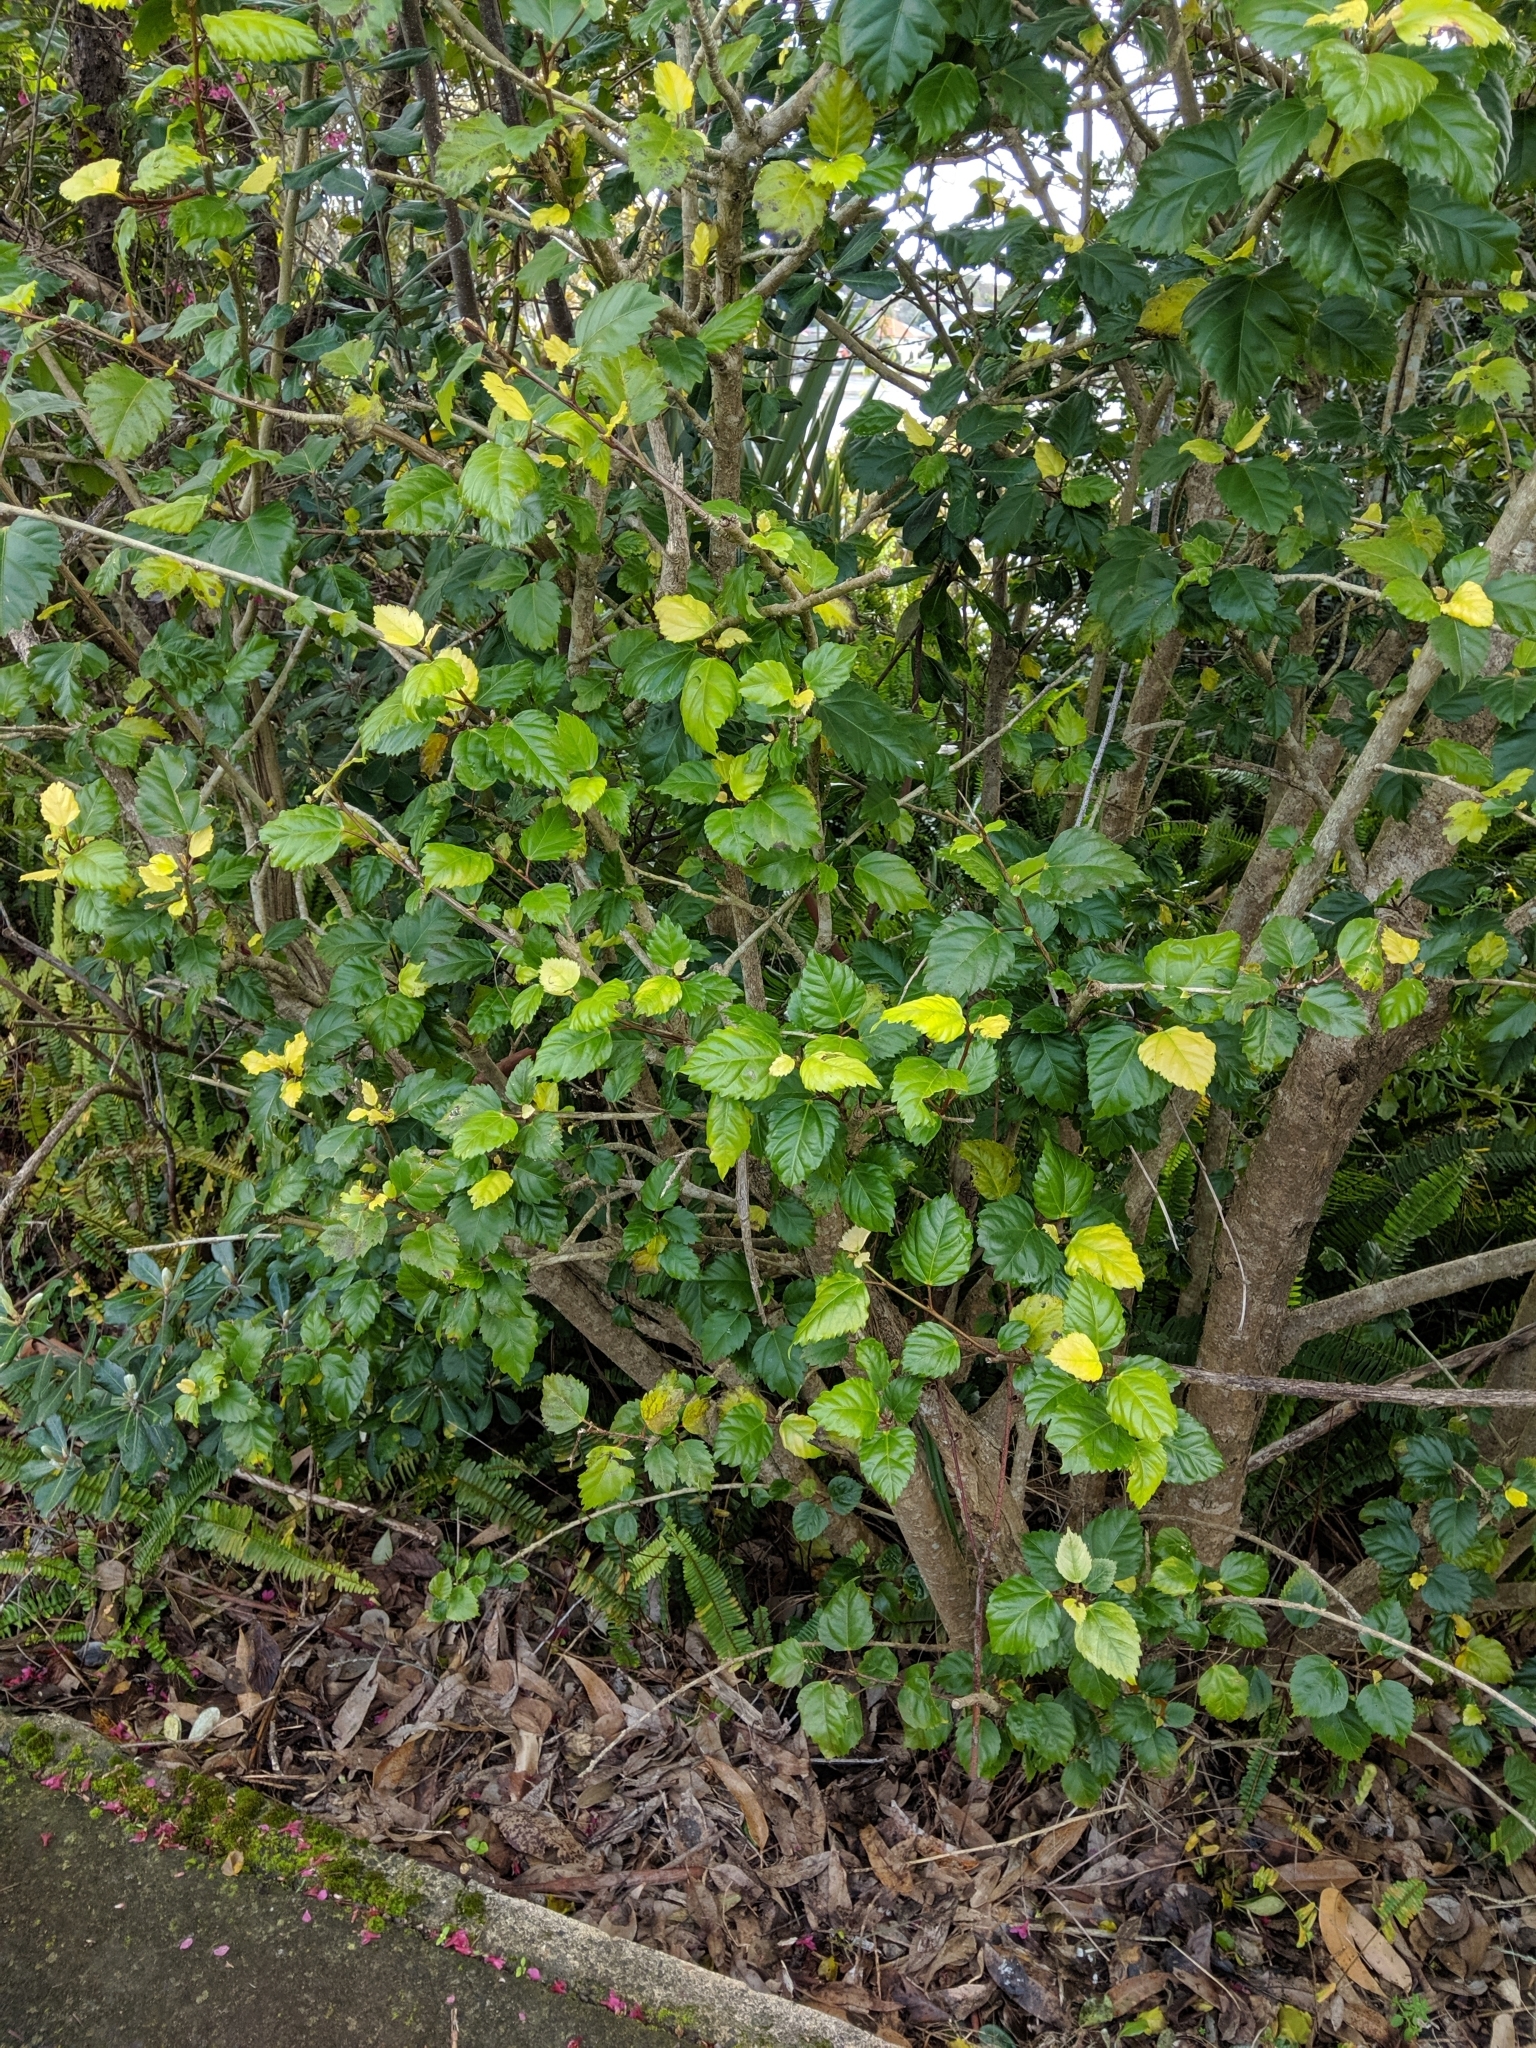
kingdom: Plantae
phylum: Tracheophyta
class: Magnoliopsida
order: Malvales
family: Malvaceae
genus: Hibiscus
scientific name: Hibiscus rosa-sinensis
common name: Hibiscus
